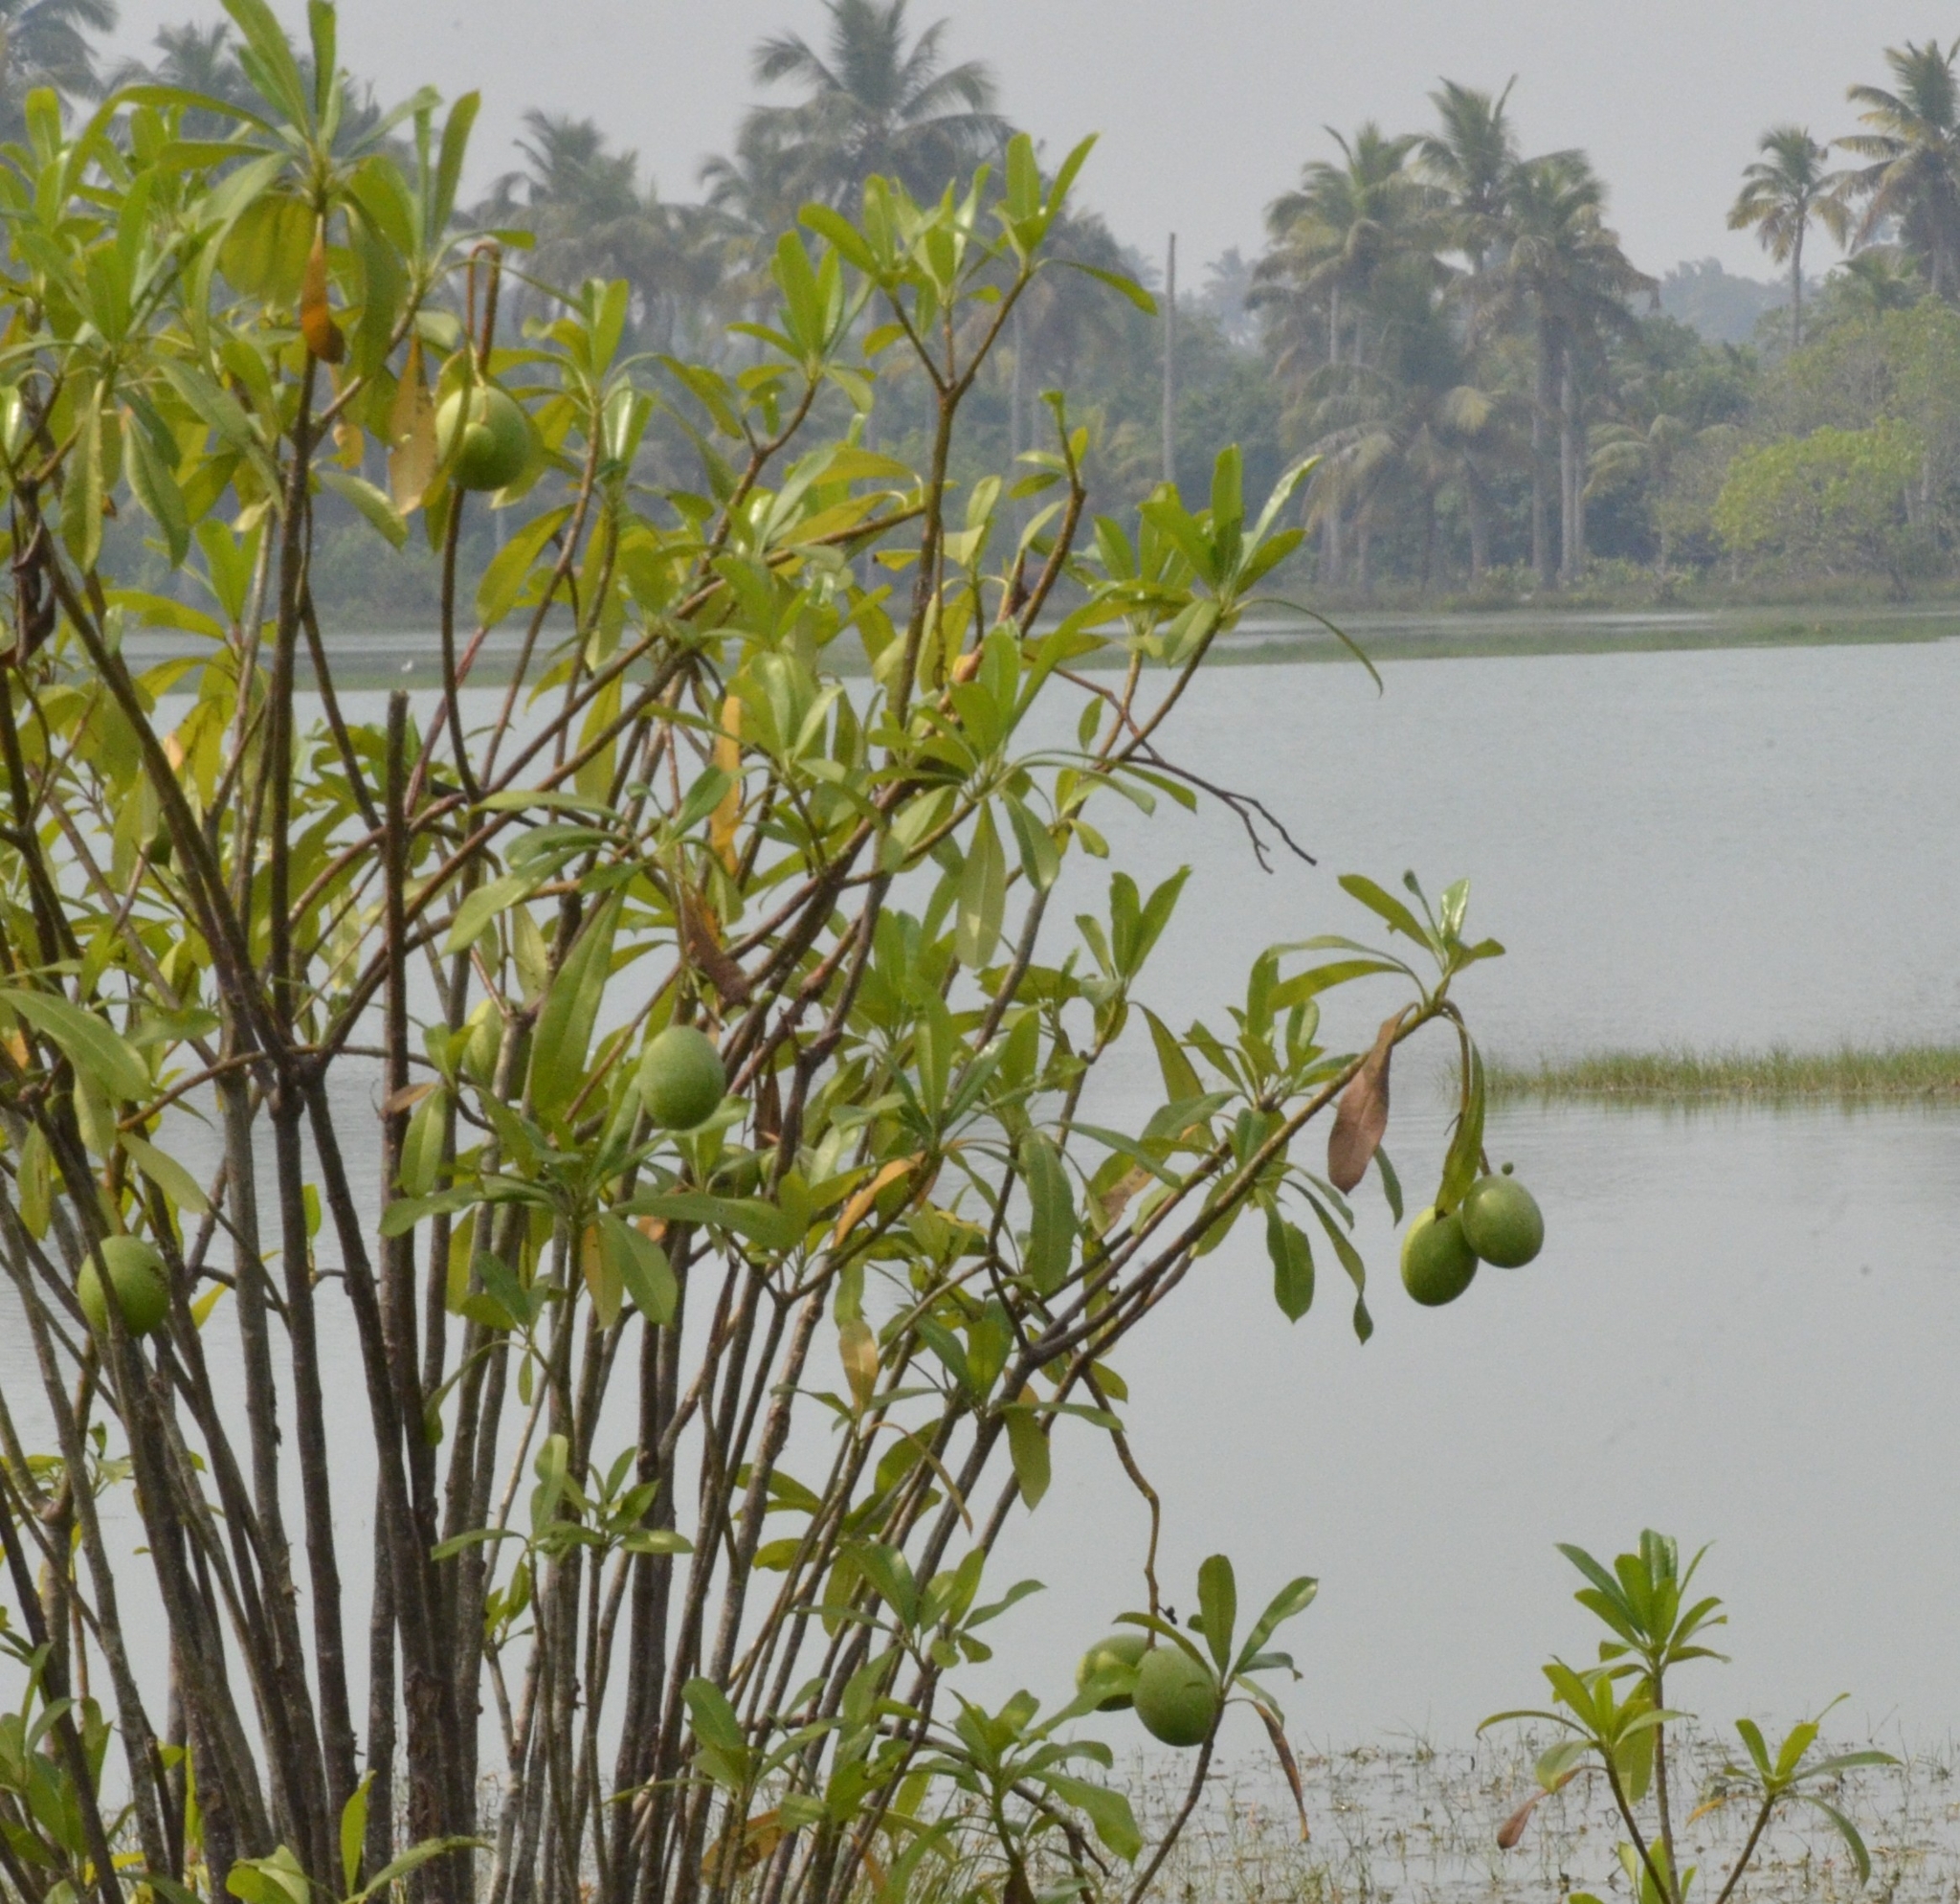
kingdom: Plantae
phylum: Tracheophyta
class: Magnoliopsida
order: Gentianales
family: Apocynaceae
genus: Cerbera
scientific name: Cerbera odollam
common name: Pong-pong
